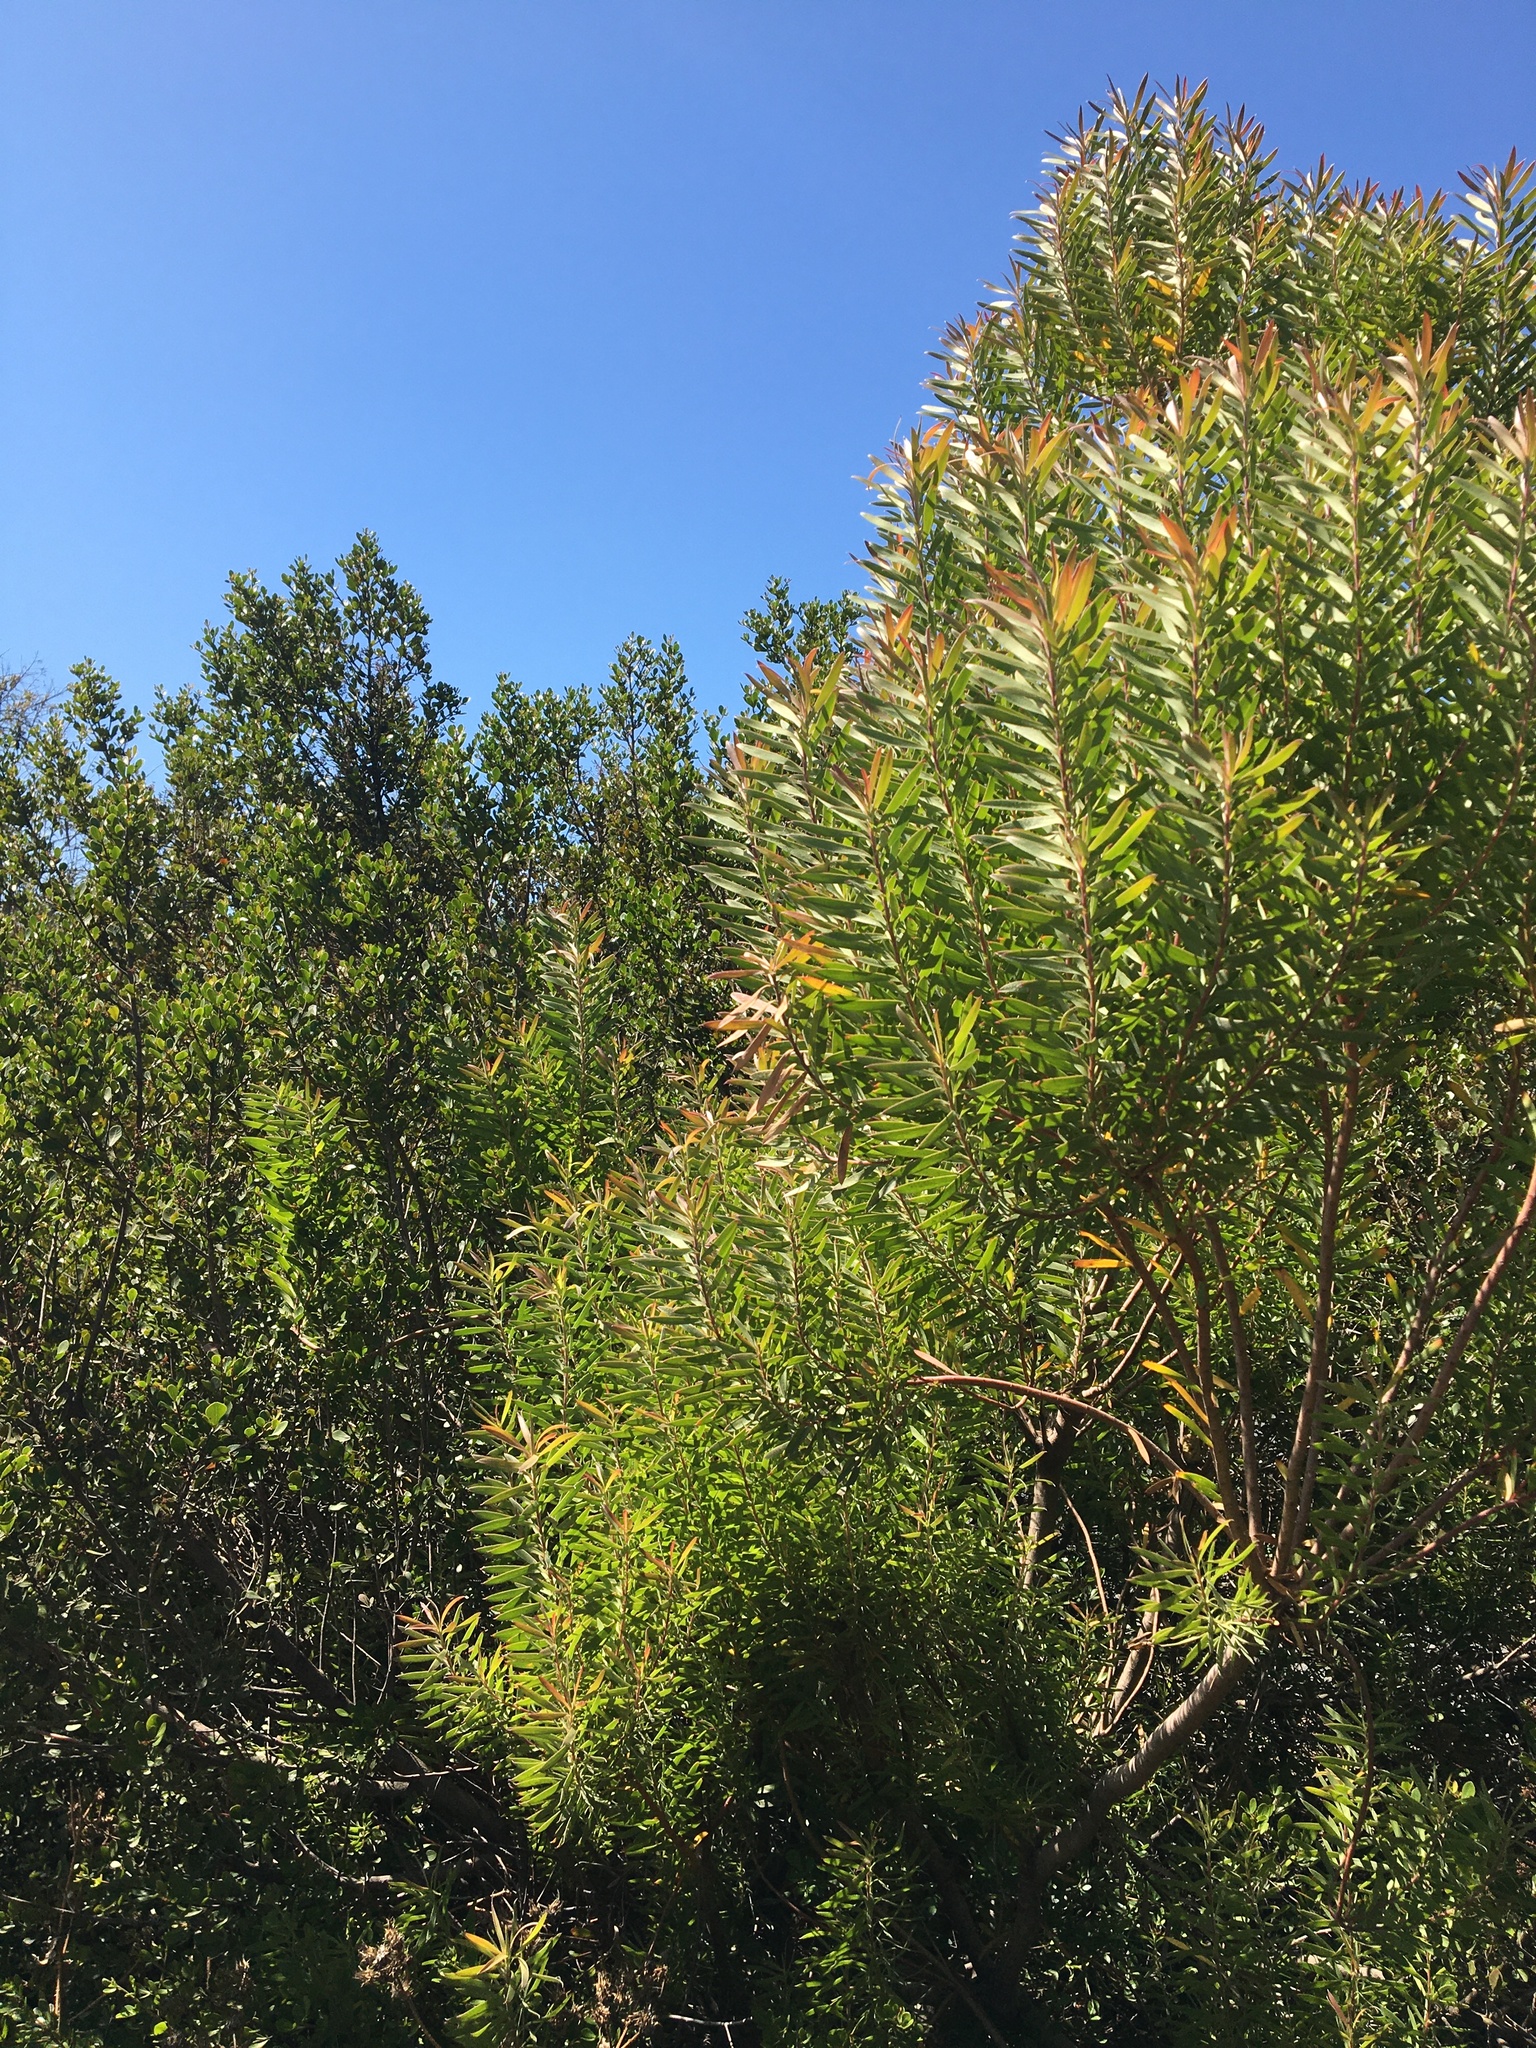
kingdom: Plantae
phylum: Tracheophyta
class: Magnoliopsida
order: Proteales
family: Proteaceae
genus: Leucadendron
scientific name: Leucadendron coniferum
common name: Dune conebush
